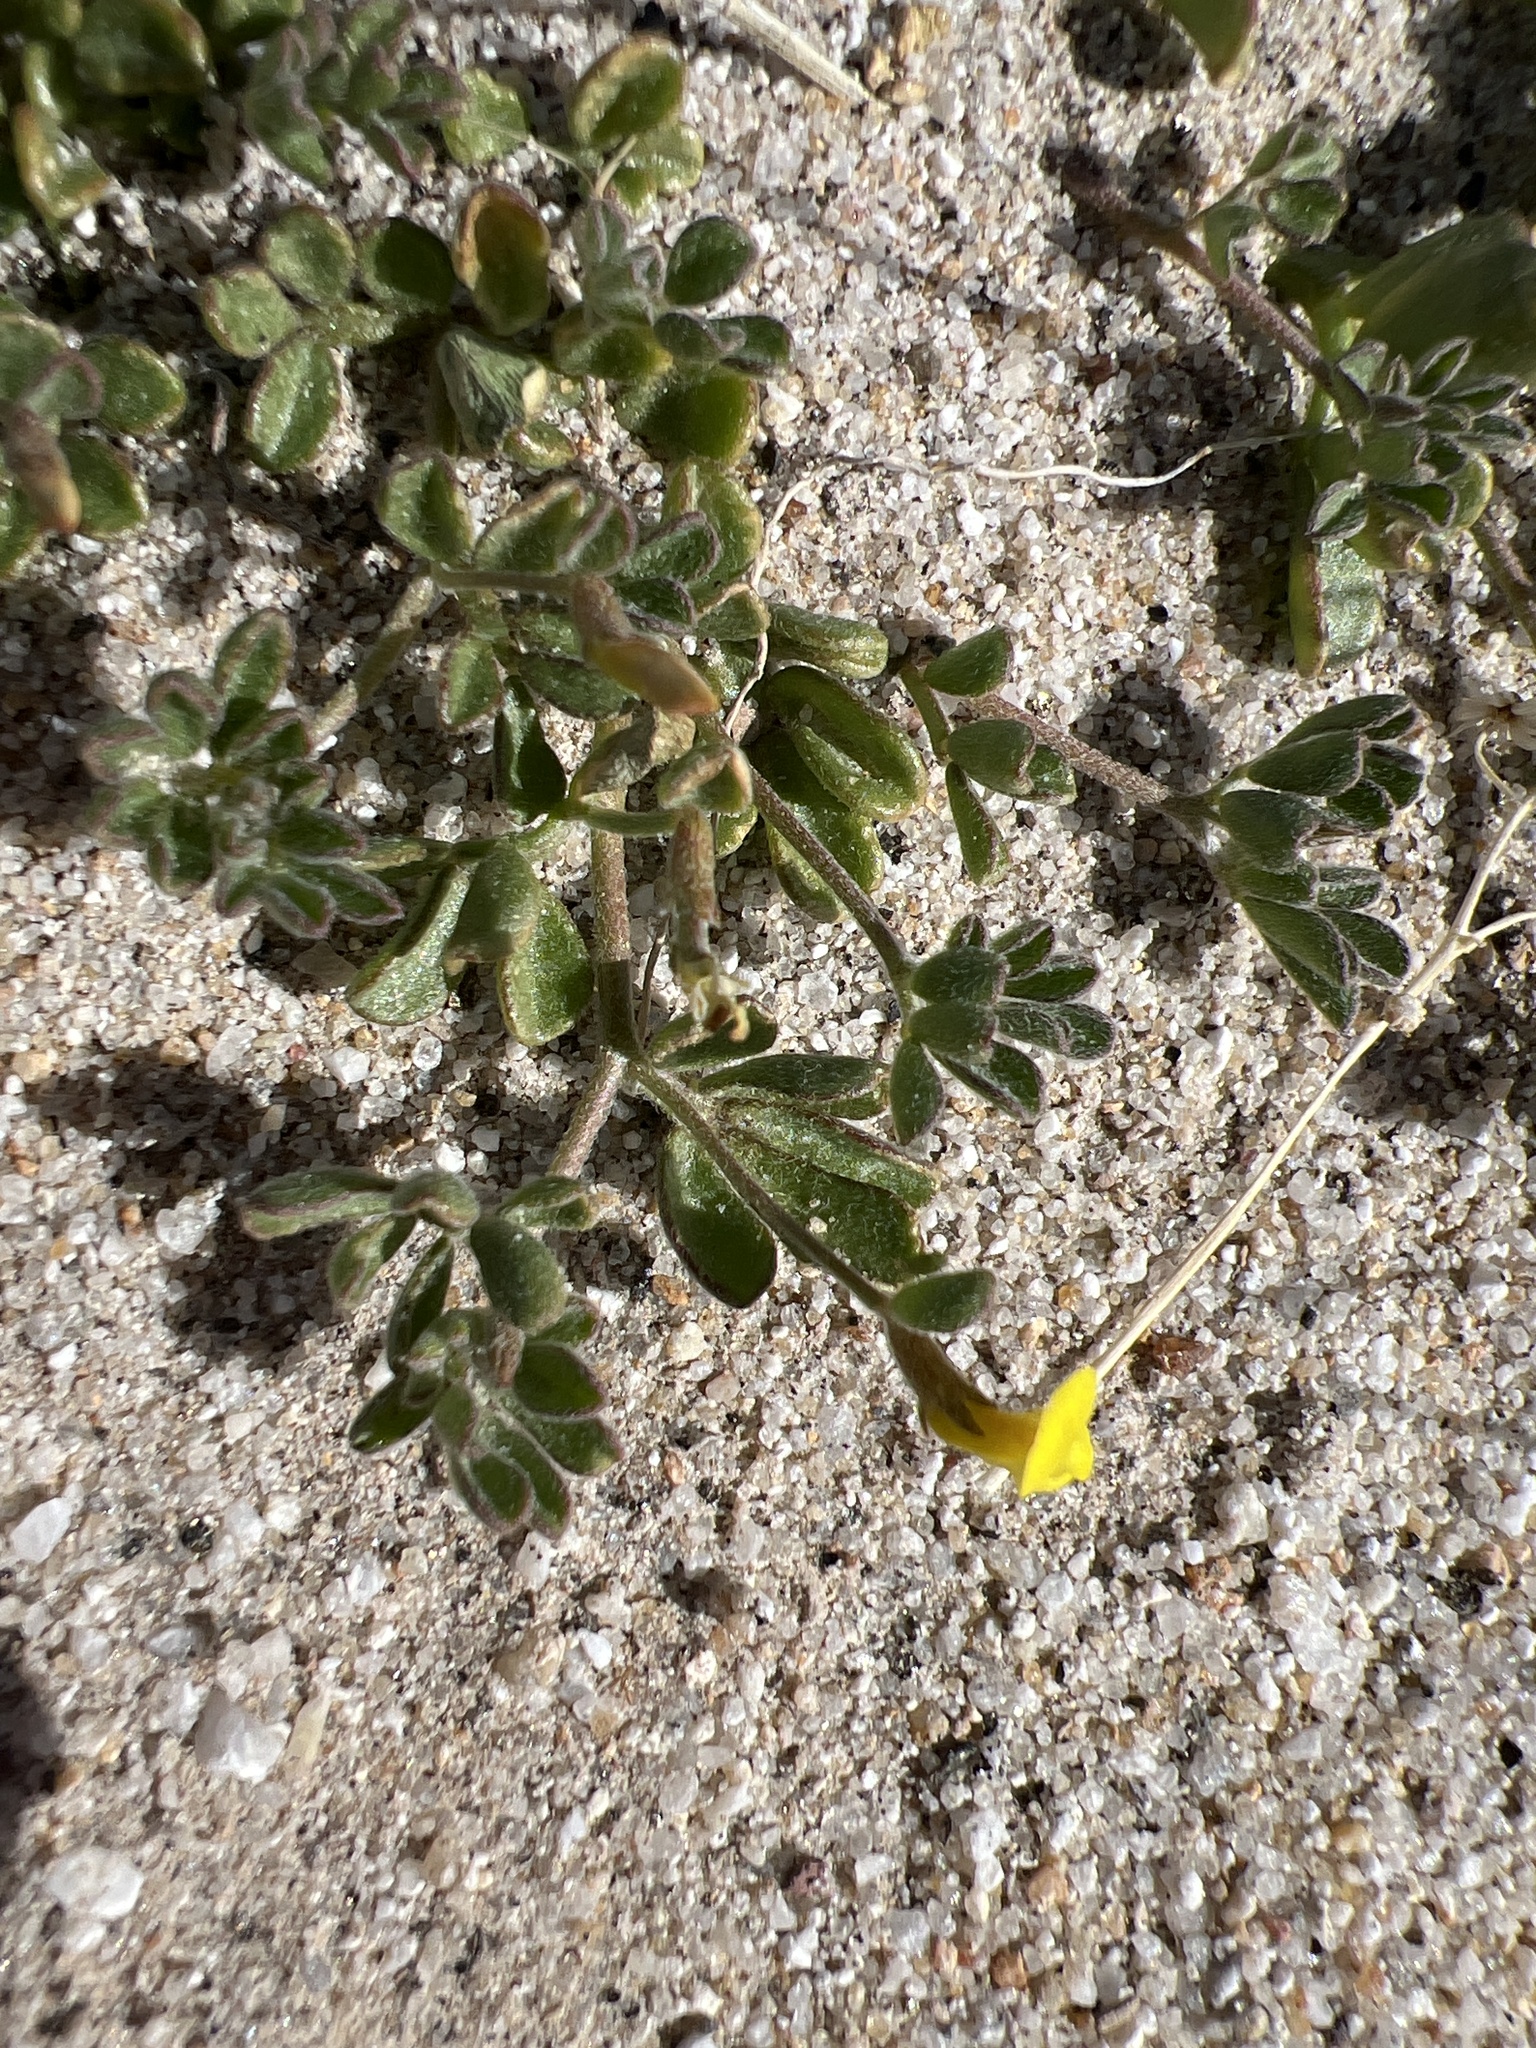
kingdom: Plantae
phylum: Tracheophyta
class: Magnoliopsida
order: Fabales
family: Fabaceae
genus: Acmispon
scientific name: Acmispon strigosus
